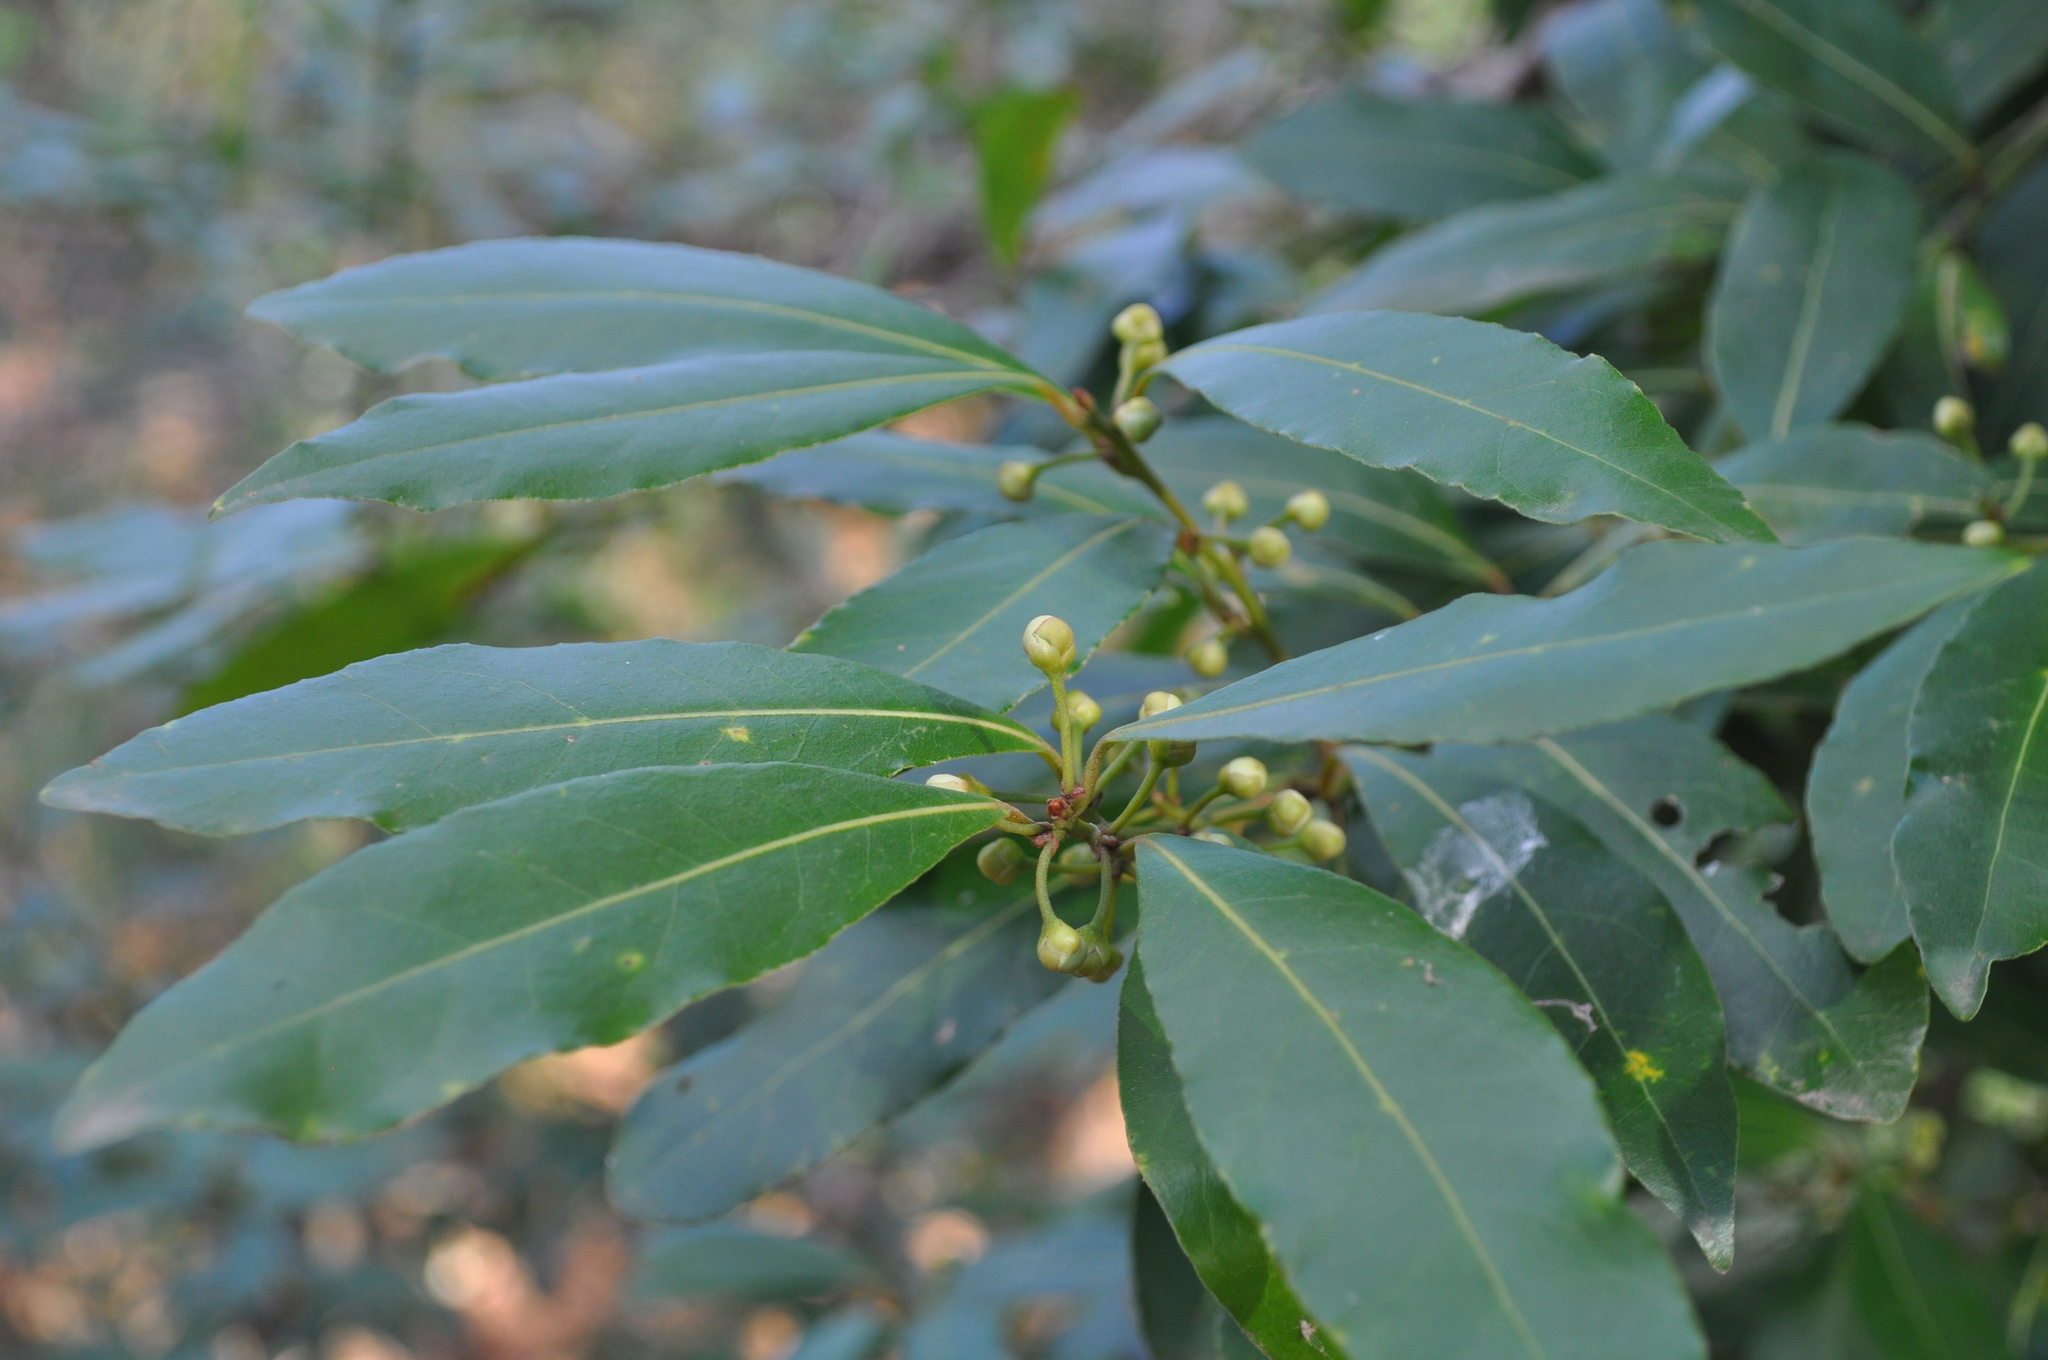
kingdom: Plantae
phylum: Tracheophyta
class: Magnoliopsida
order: Laurales
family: Lauraceae
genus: Laurus
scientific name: Laurus nobilis
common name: Bay
